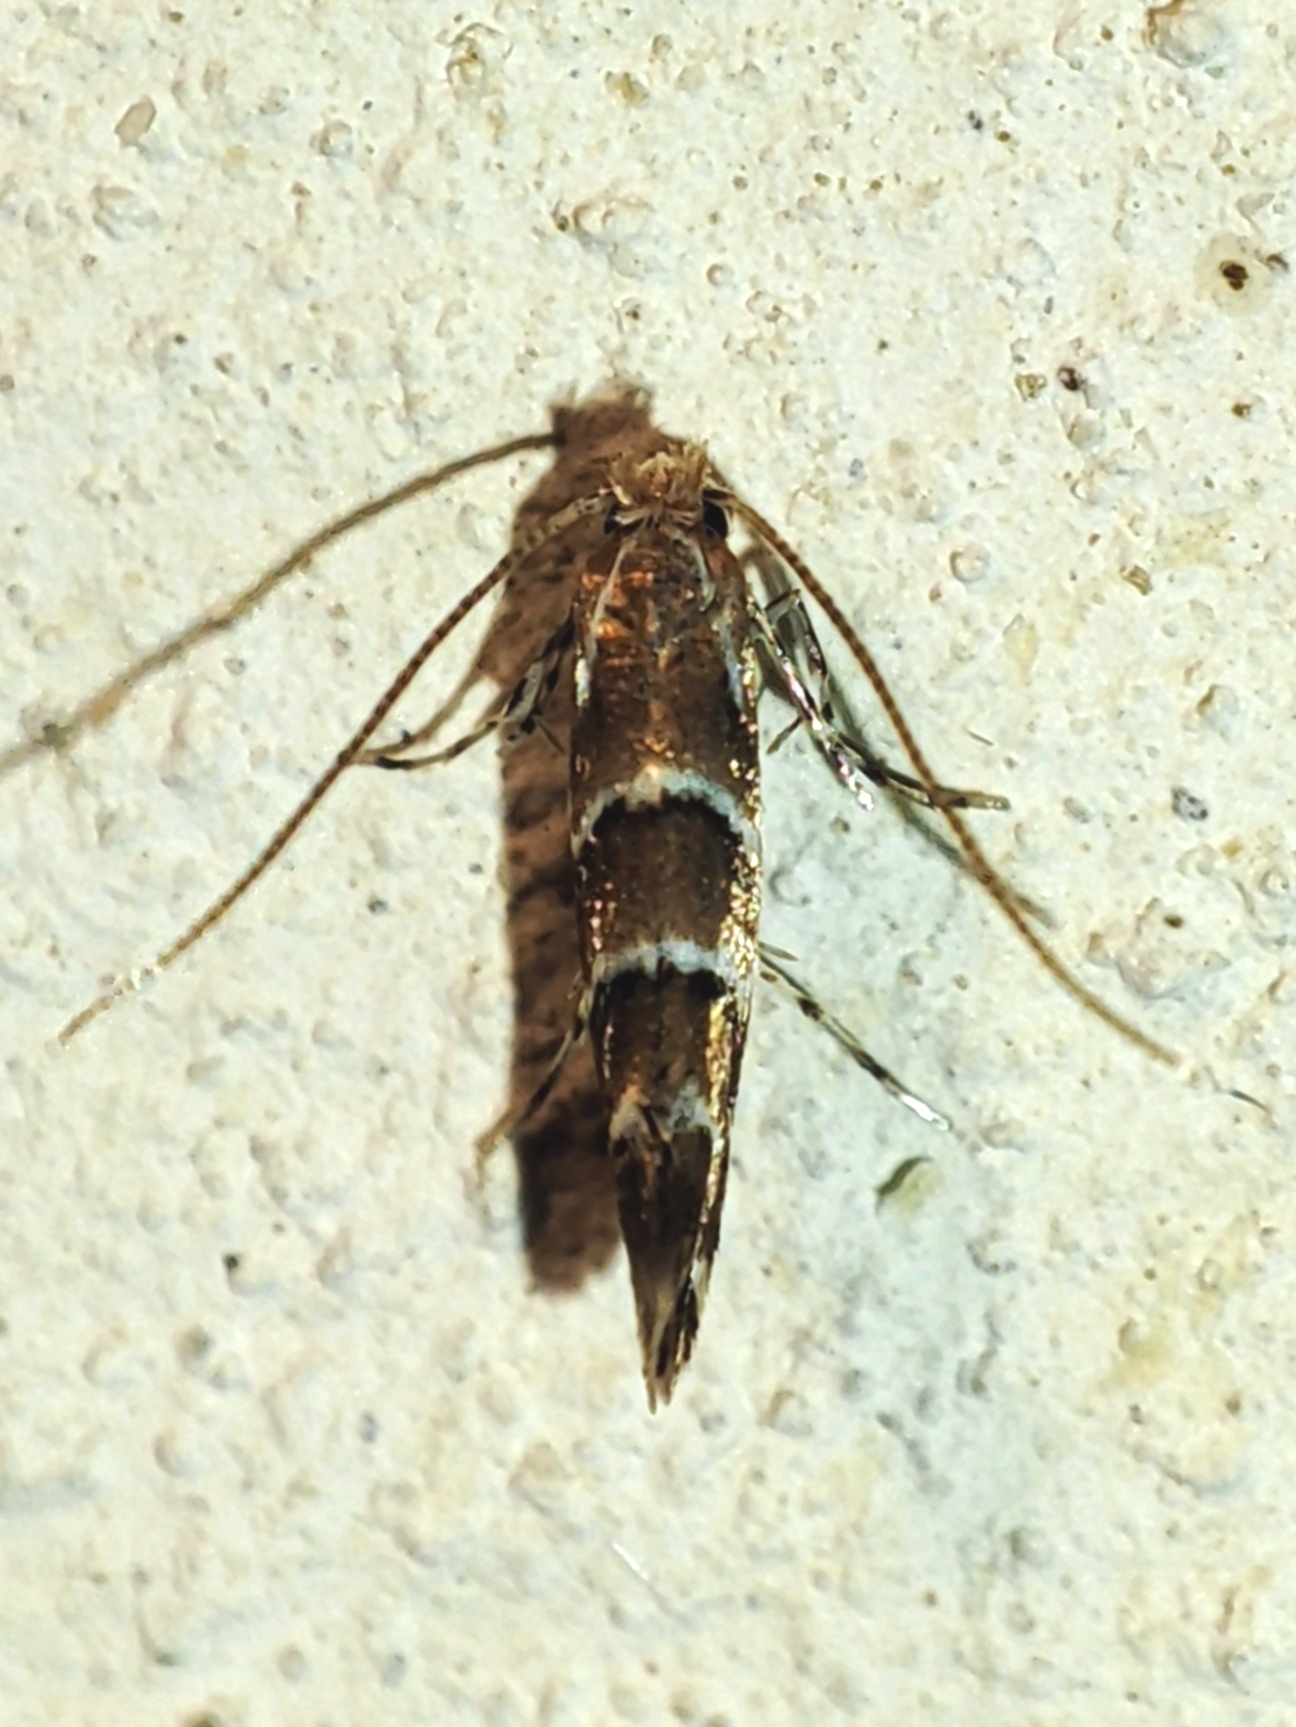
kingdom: Animalia
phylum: Arthropoda
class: Insecta
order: Lepidoptera
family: Gracillariidae
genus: Cameraria
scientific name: Cameraria ohridella
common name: Horse-chestnut leaf-miner
